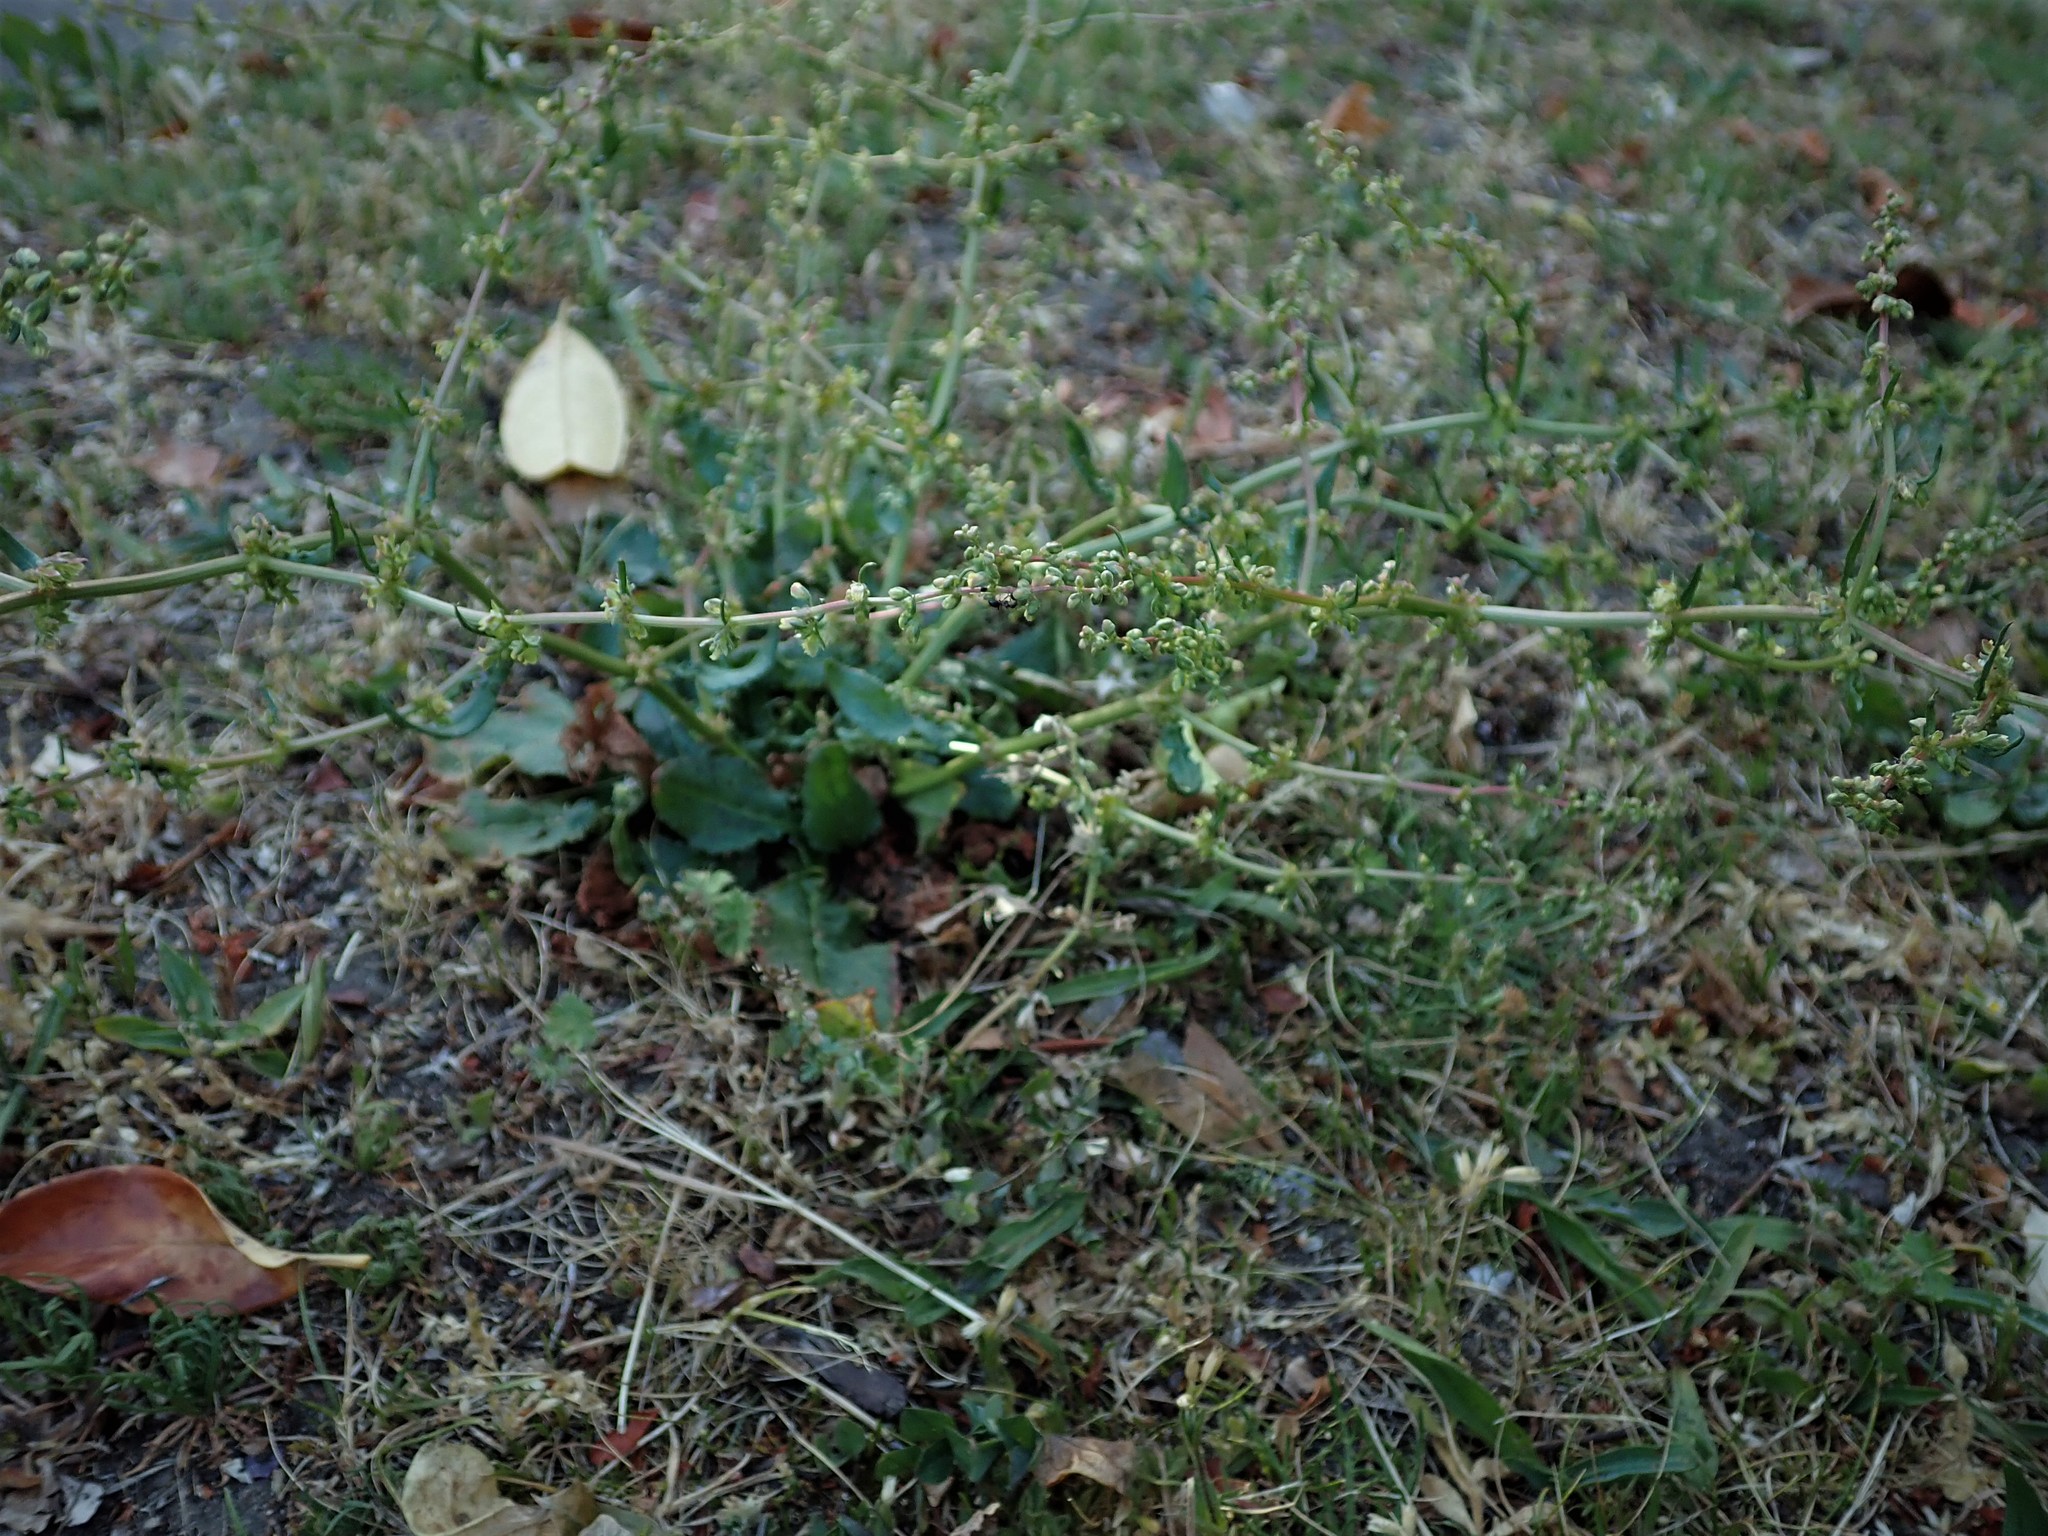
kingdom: Plantae
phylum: Tracheophyta
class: Magnoliopsida
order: Caryophyllales
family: Polygonaceae
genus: Rumex
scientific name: Rumex pulcher
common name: Fiddle dock
